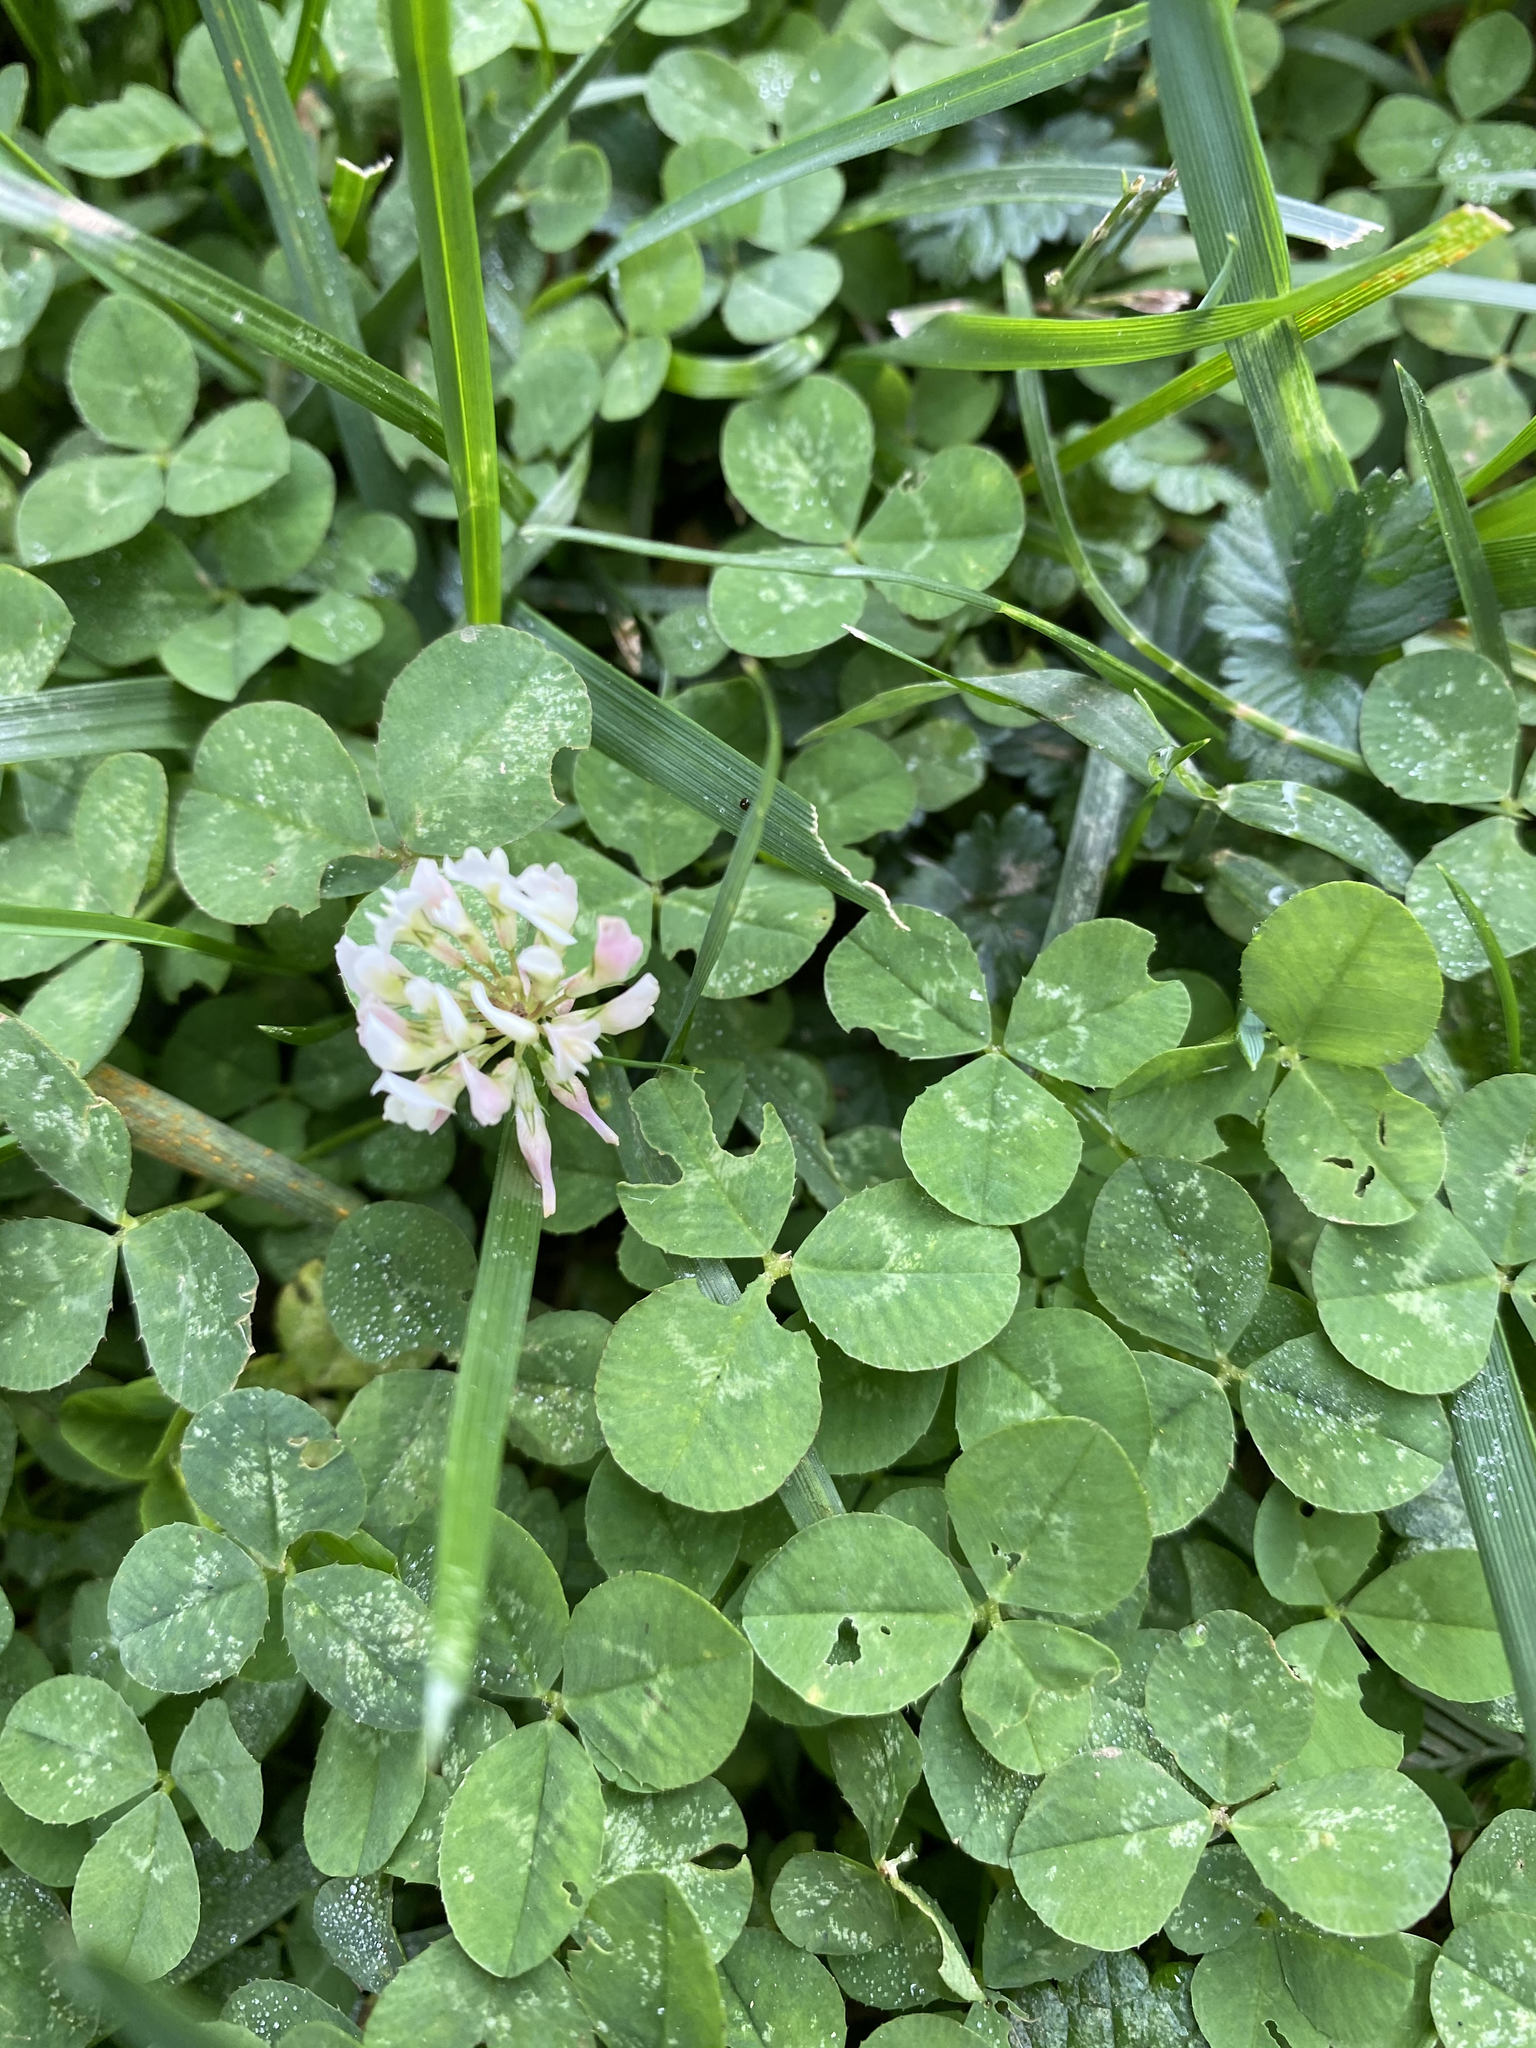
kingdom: Plantae
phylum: Tracheophyta
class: Magnoliopsida
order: Fabales
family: Fabaceae
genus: Trifolium
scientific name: Trifolium repens
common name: White clover
